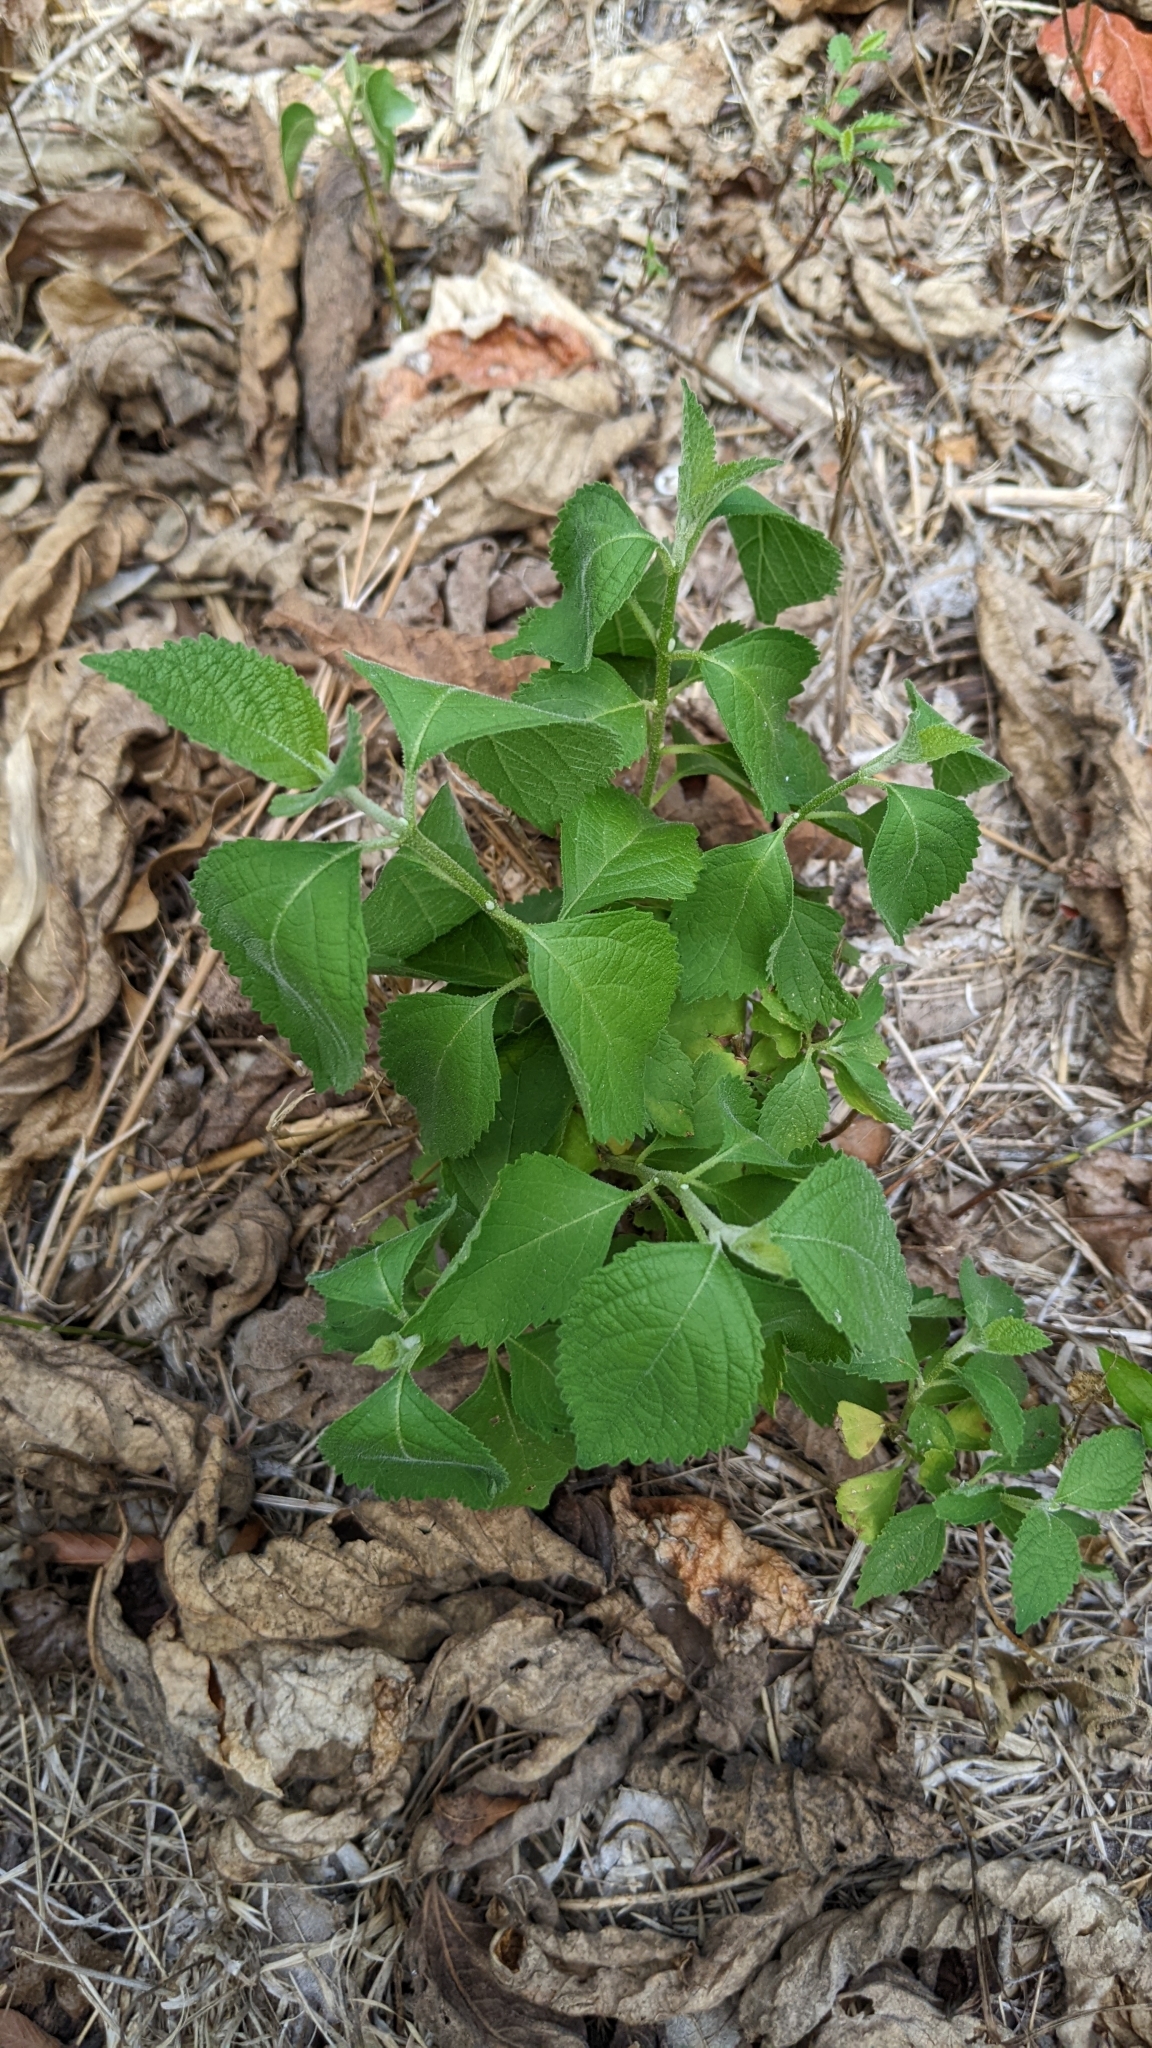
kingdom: Plantae
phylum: Tracheophyta
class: Magnoliopsida
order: Lamiales
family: Lamiaceae
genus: Callicarpa
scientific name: Callicarpa americana
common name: American beautyberry
